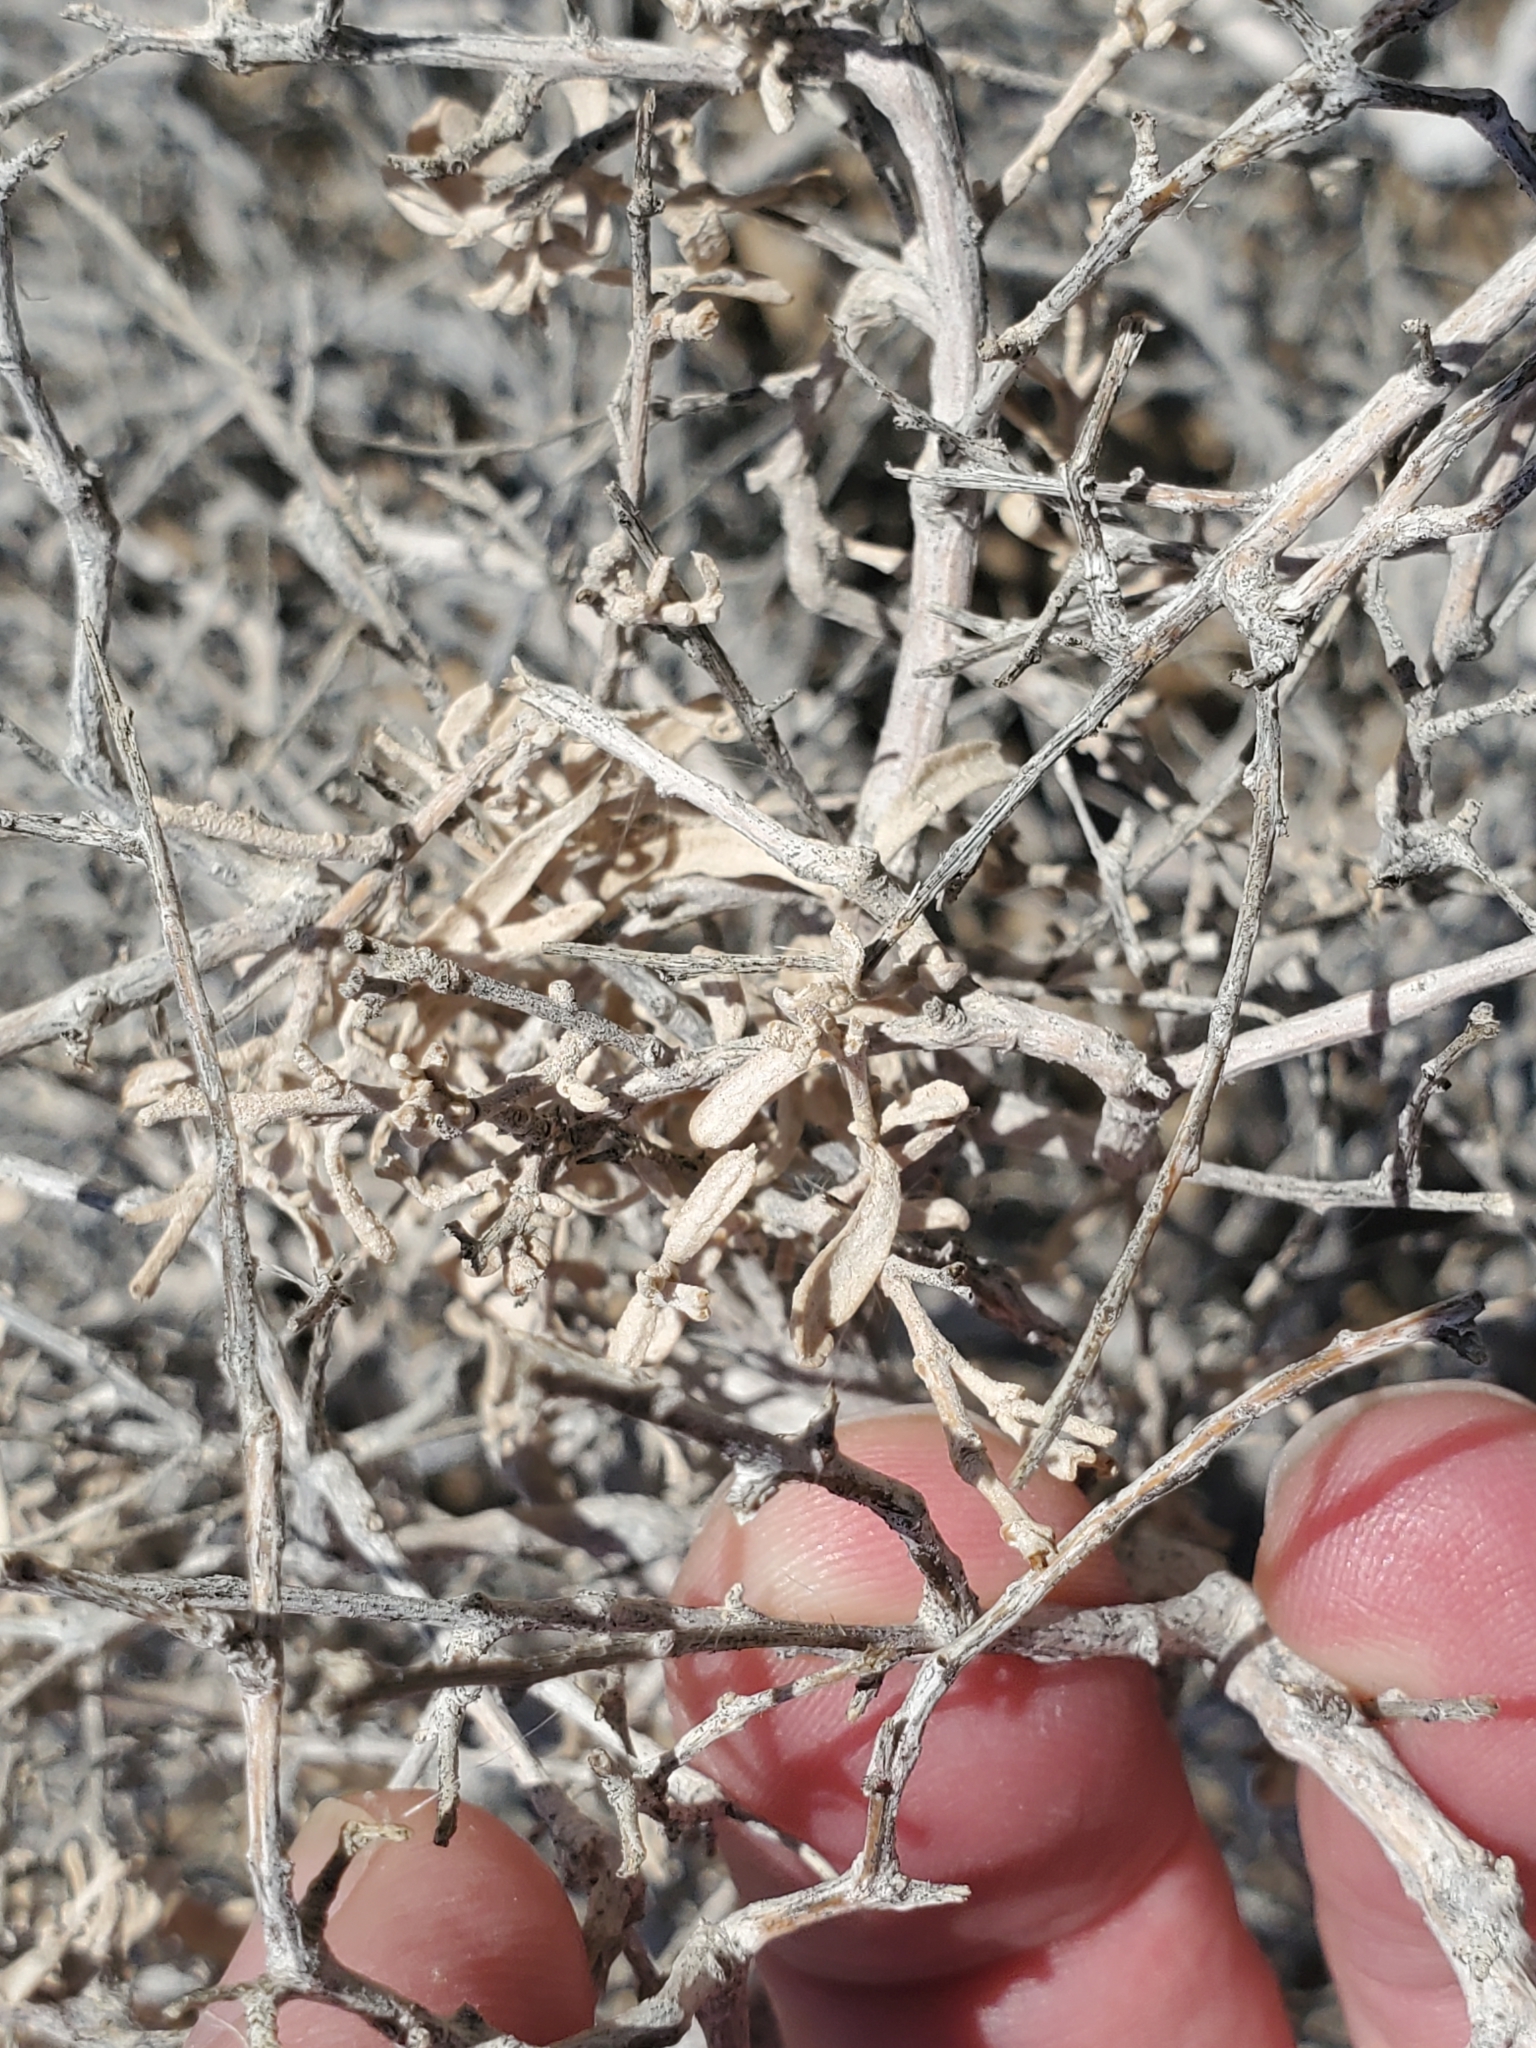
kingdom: Plantae
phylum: Tracheophyta
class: Magnoliopsida
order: Caryophyllales
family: Amaranthaceae
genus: Atriplex
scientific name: Atriplex canescens
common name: Four-wing saltbush
